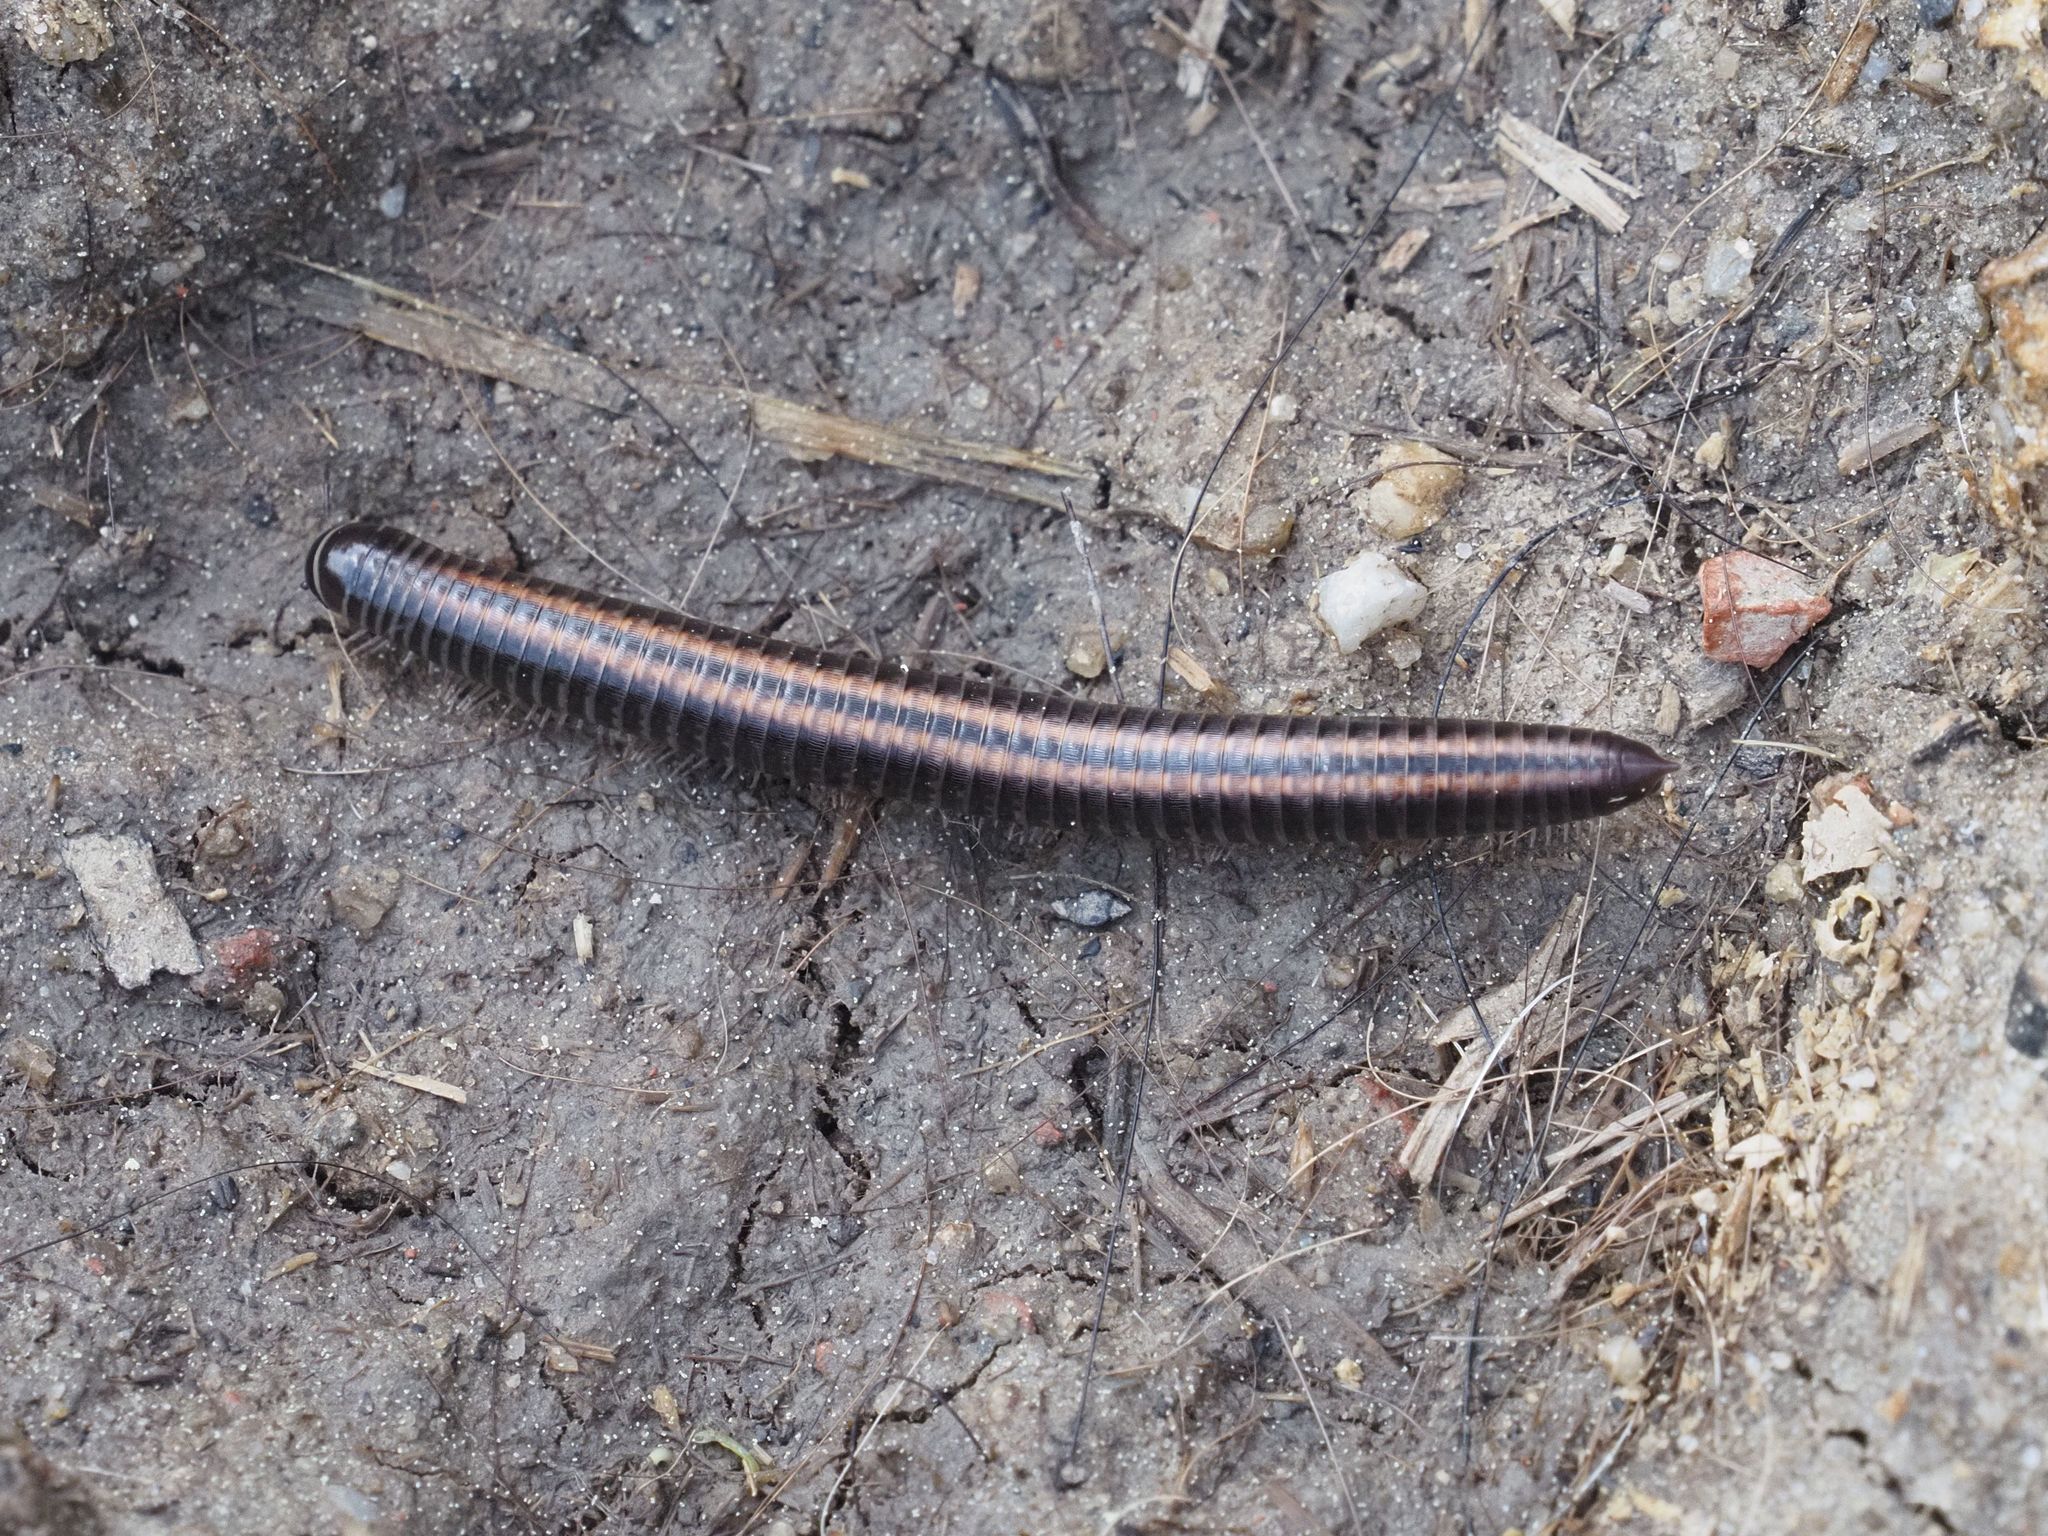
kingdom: Animalia
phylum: Arthropoda
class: Diplopoda
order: Julida
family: Julidae
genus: Ommatoiulus
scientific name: Ommatoiulus sabulosus
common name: Striped millipede
